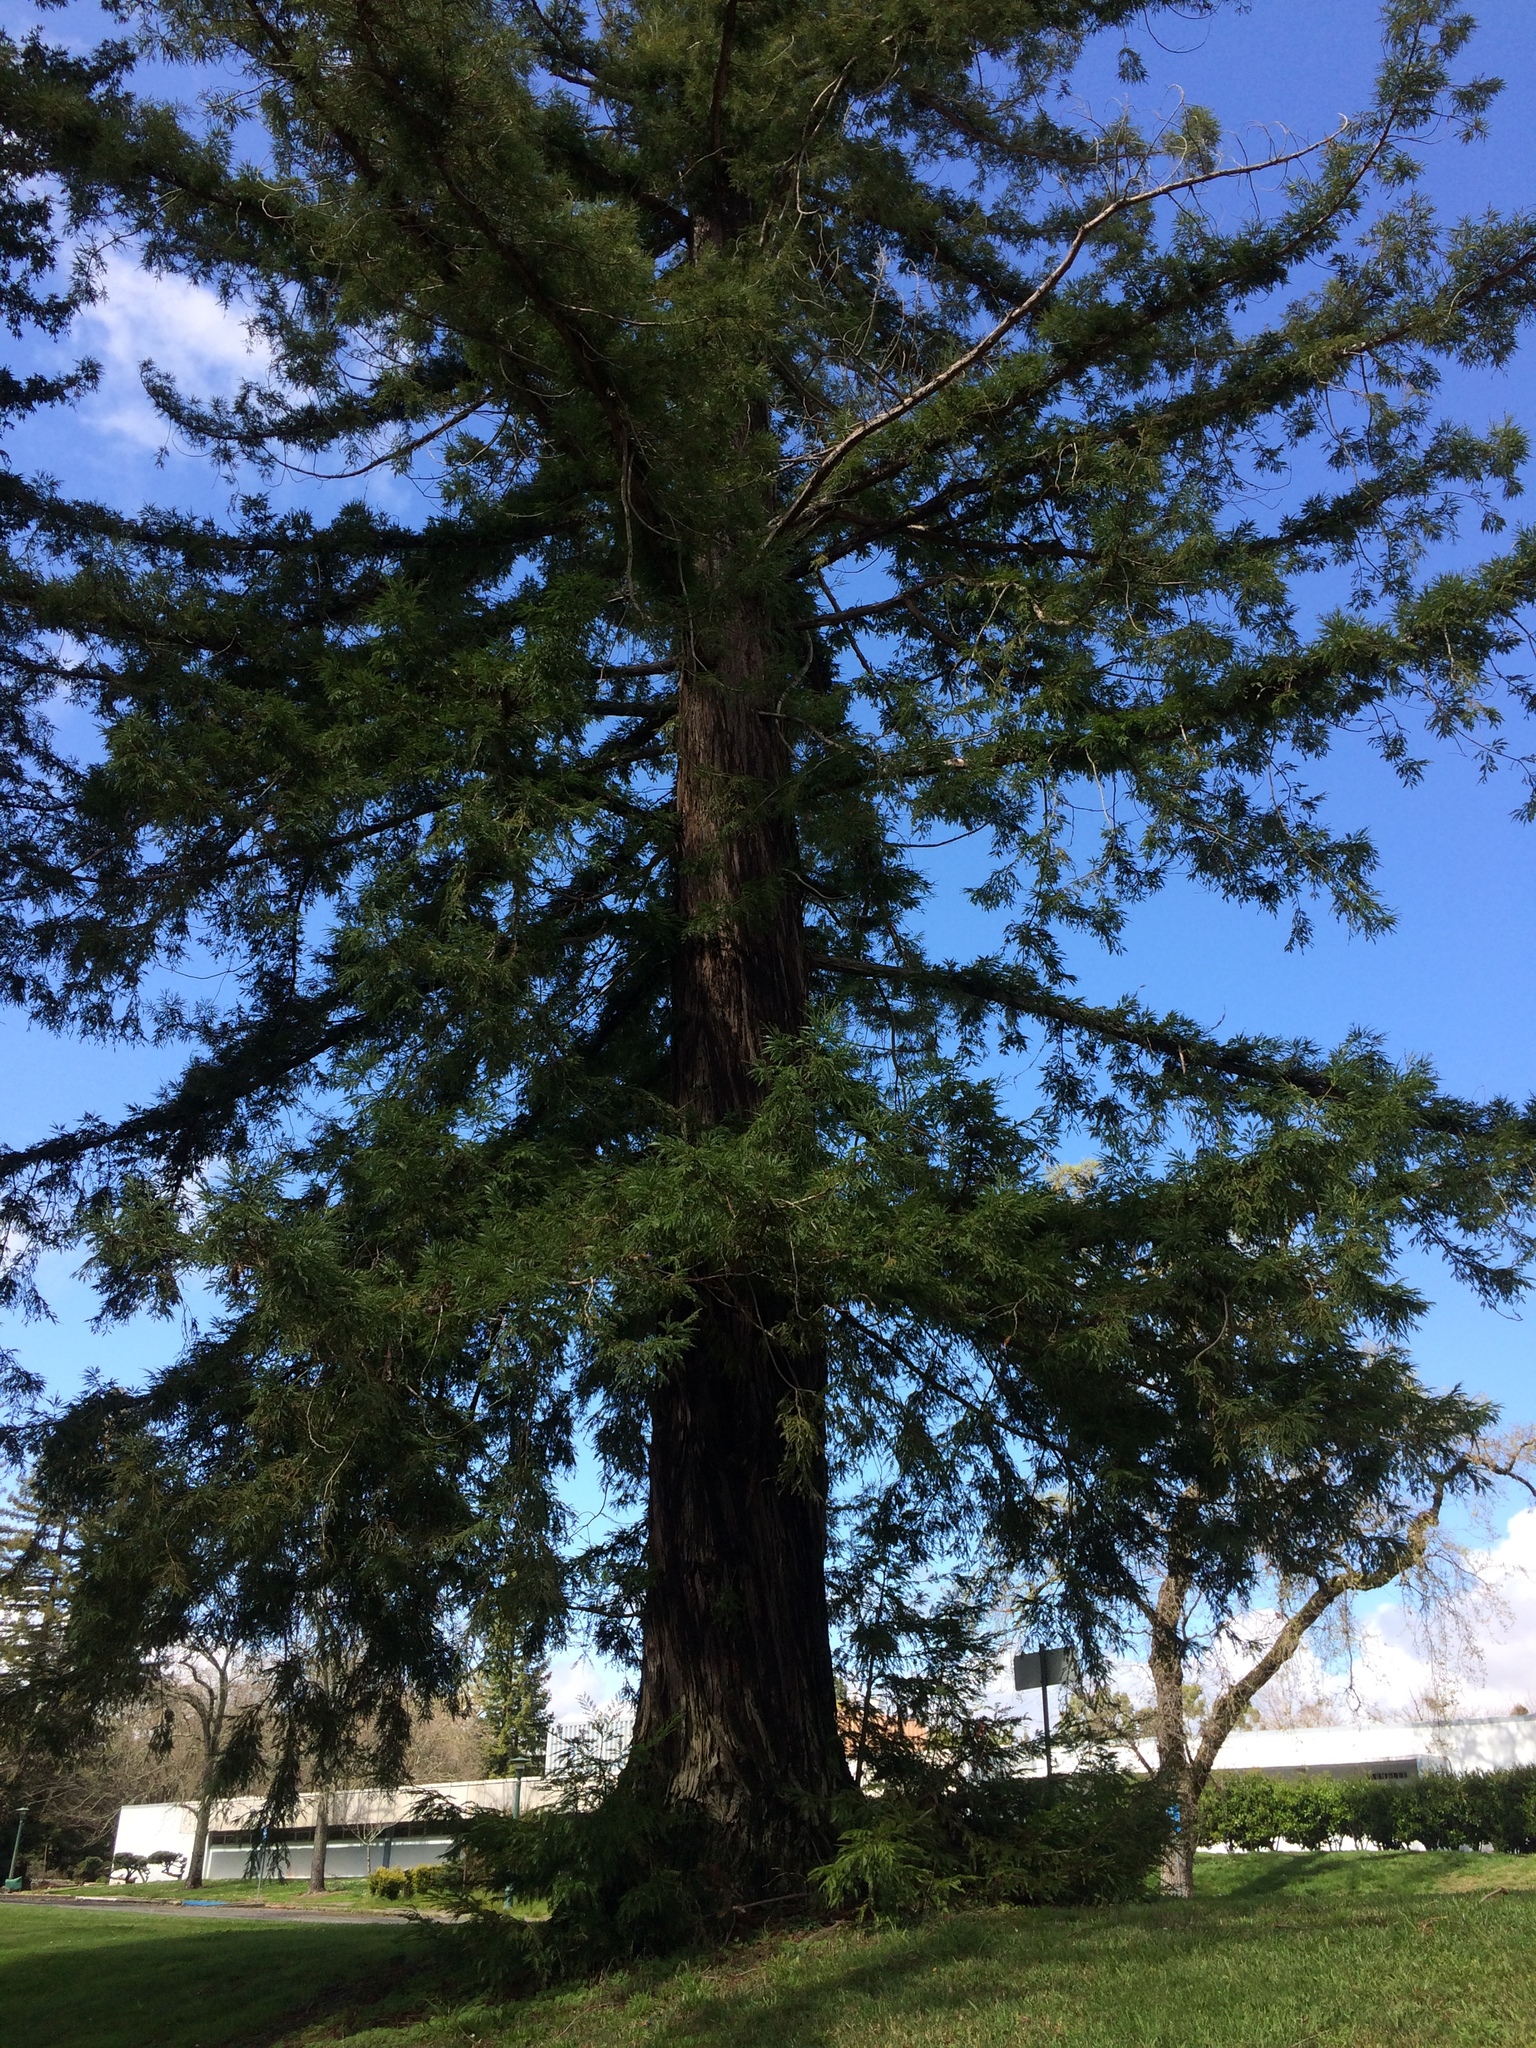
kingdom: Plantae
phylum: Tracheophyta
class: Pinopsida
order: Pinales
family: Cupressaceae
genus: Sequoia
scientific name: Sequoia sempervirens
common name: Coast redwood
